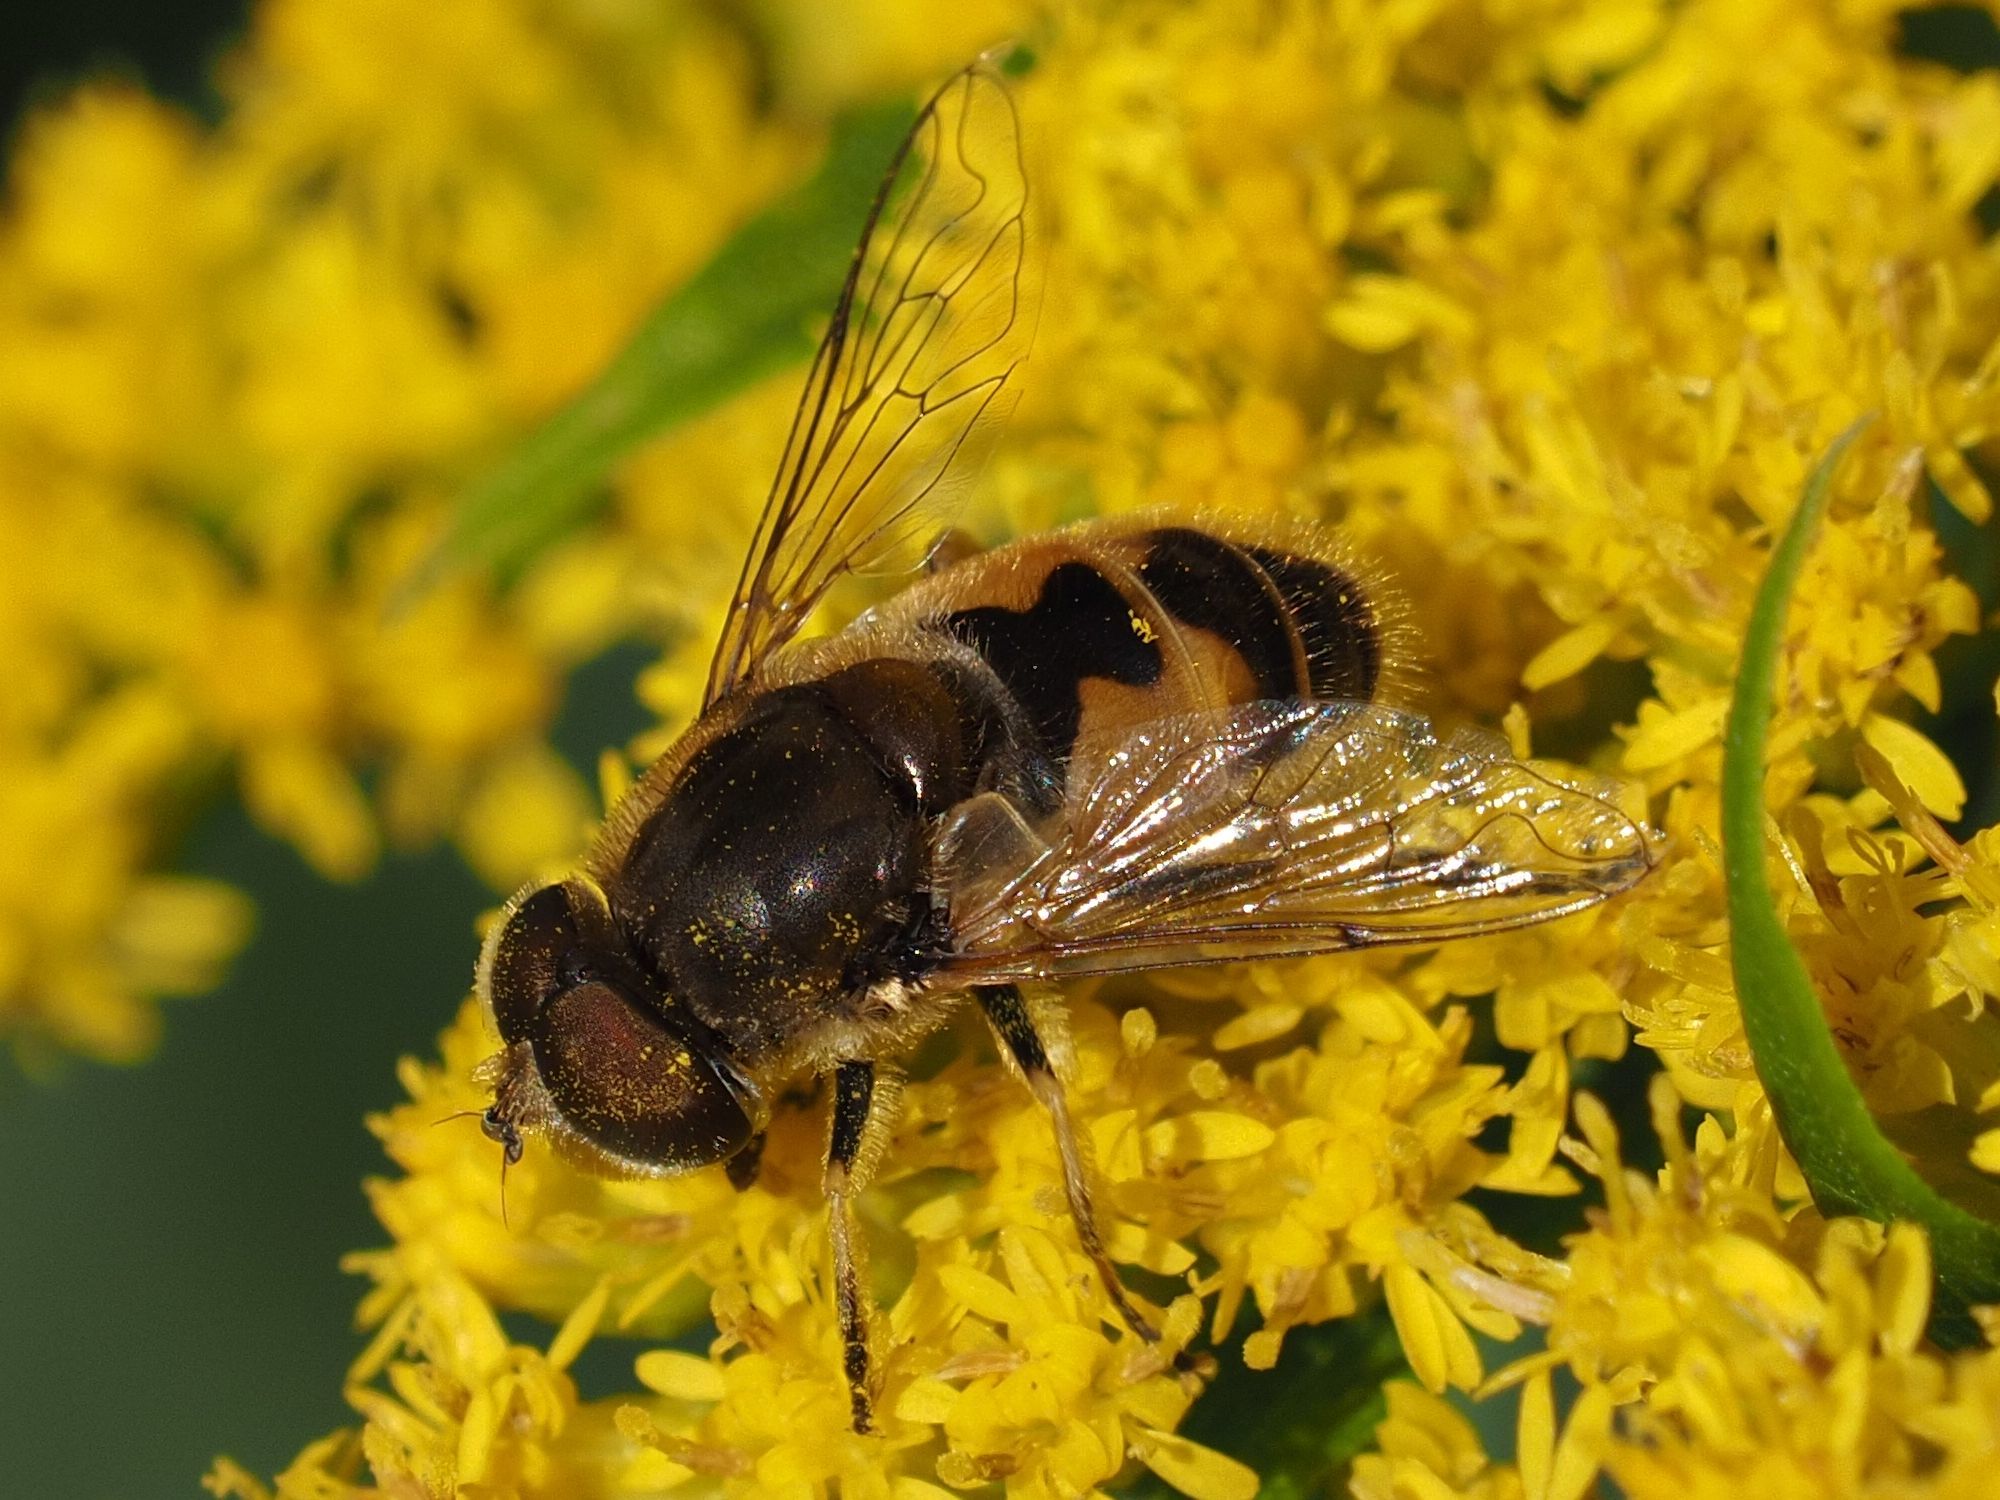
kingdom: Animalia
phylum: Arthropoda
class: Insecta
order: Diptera
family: Syrphidae
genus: Eristalis
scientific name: Eristalis arbustorum
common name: Hover fly
